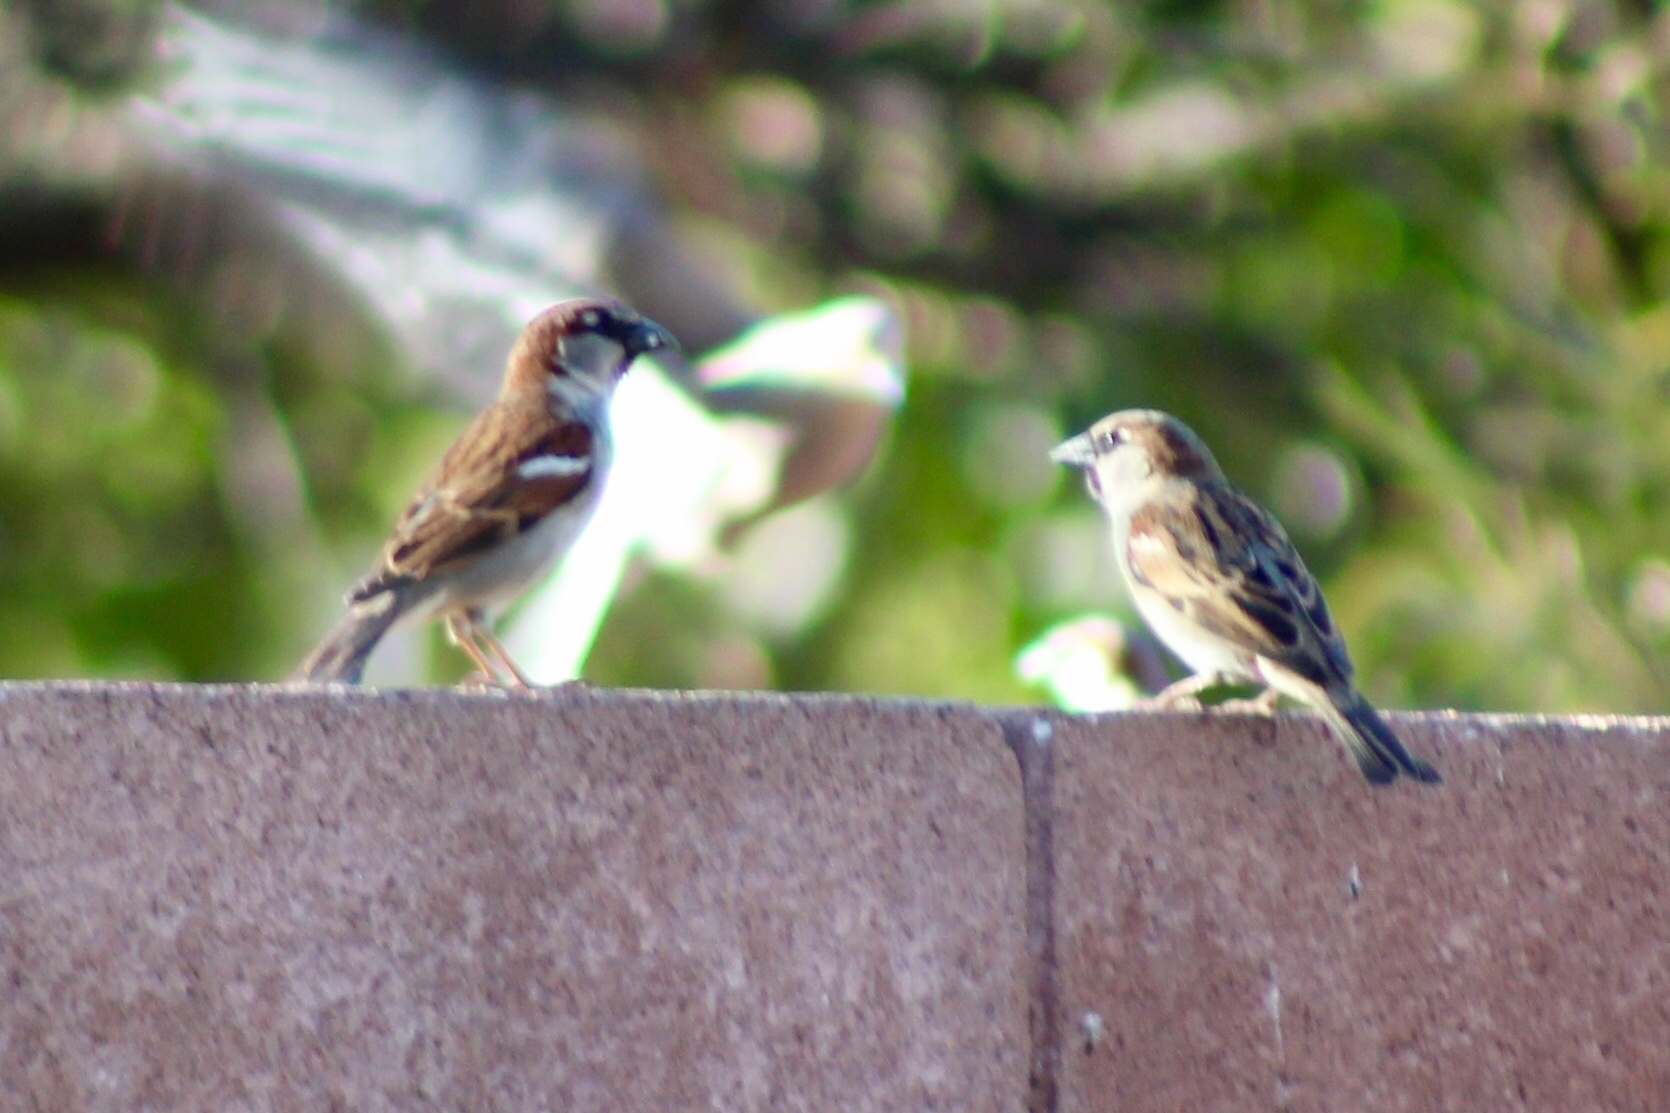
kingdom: Animalia
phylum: Chordata
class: Aves
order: Passeriformes
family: Passeridae
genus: Passer
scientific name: Passer domesticus
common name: House sparrow
